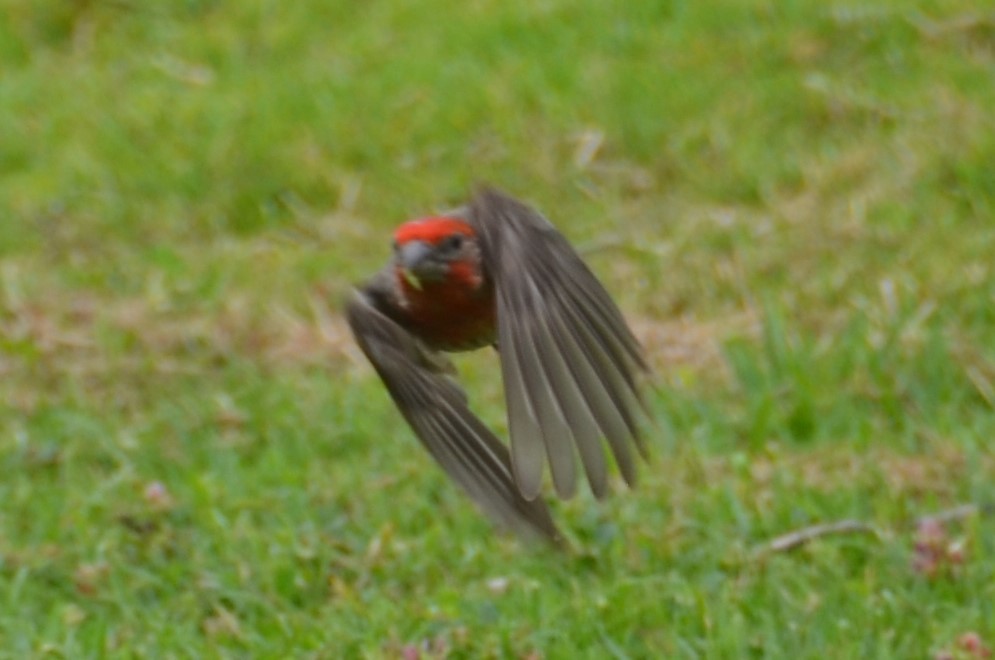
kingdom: Animalia
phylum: Chordata
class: Aves
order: Passeriformes
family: Fringillidae
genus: Haemorhous
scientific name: Haemorhous mexicanus
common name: House finch
